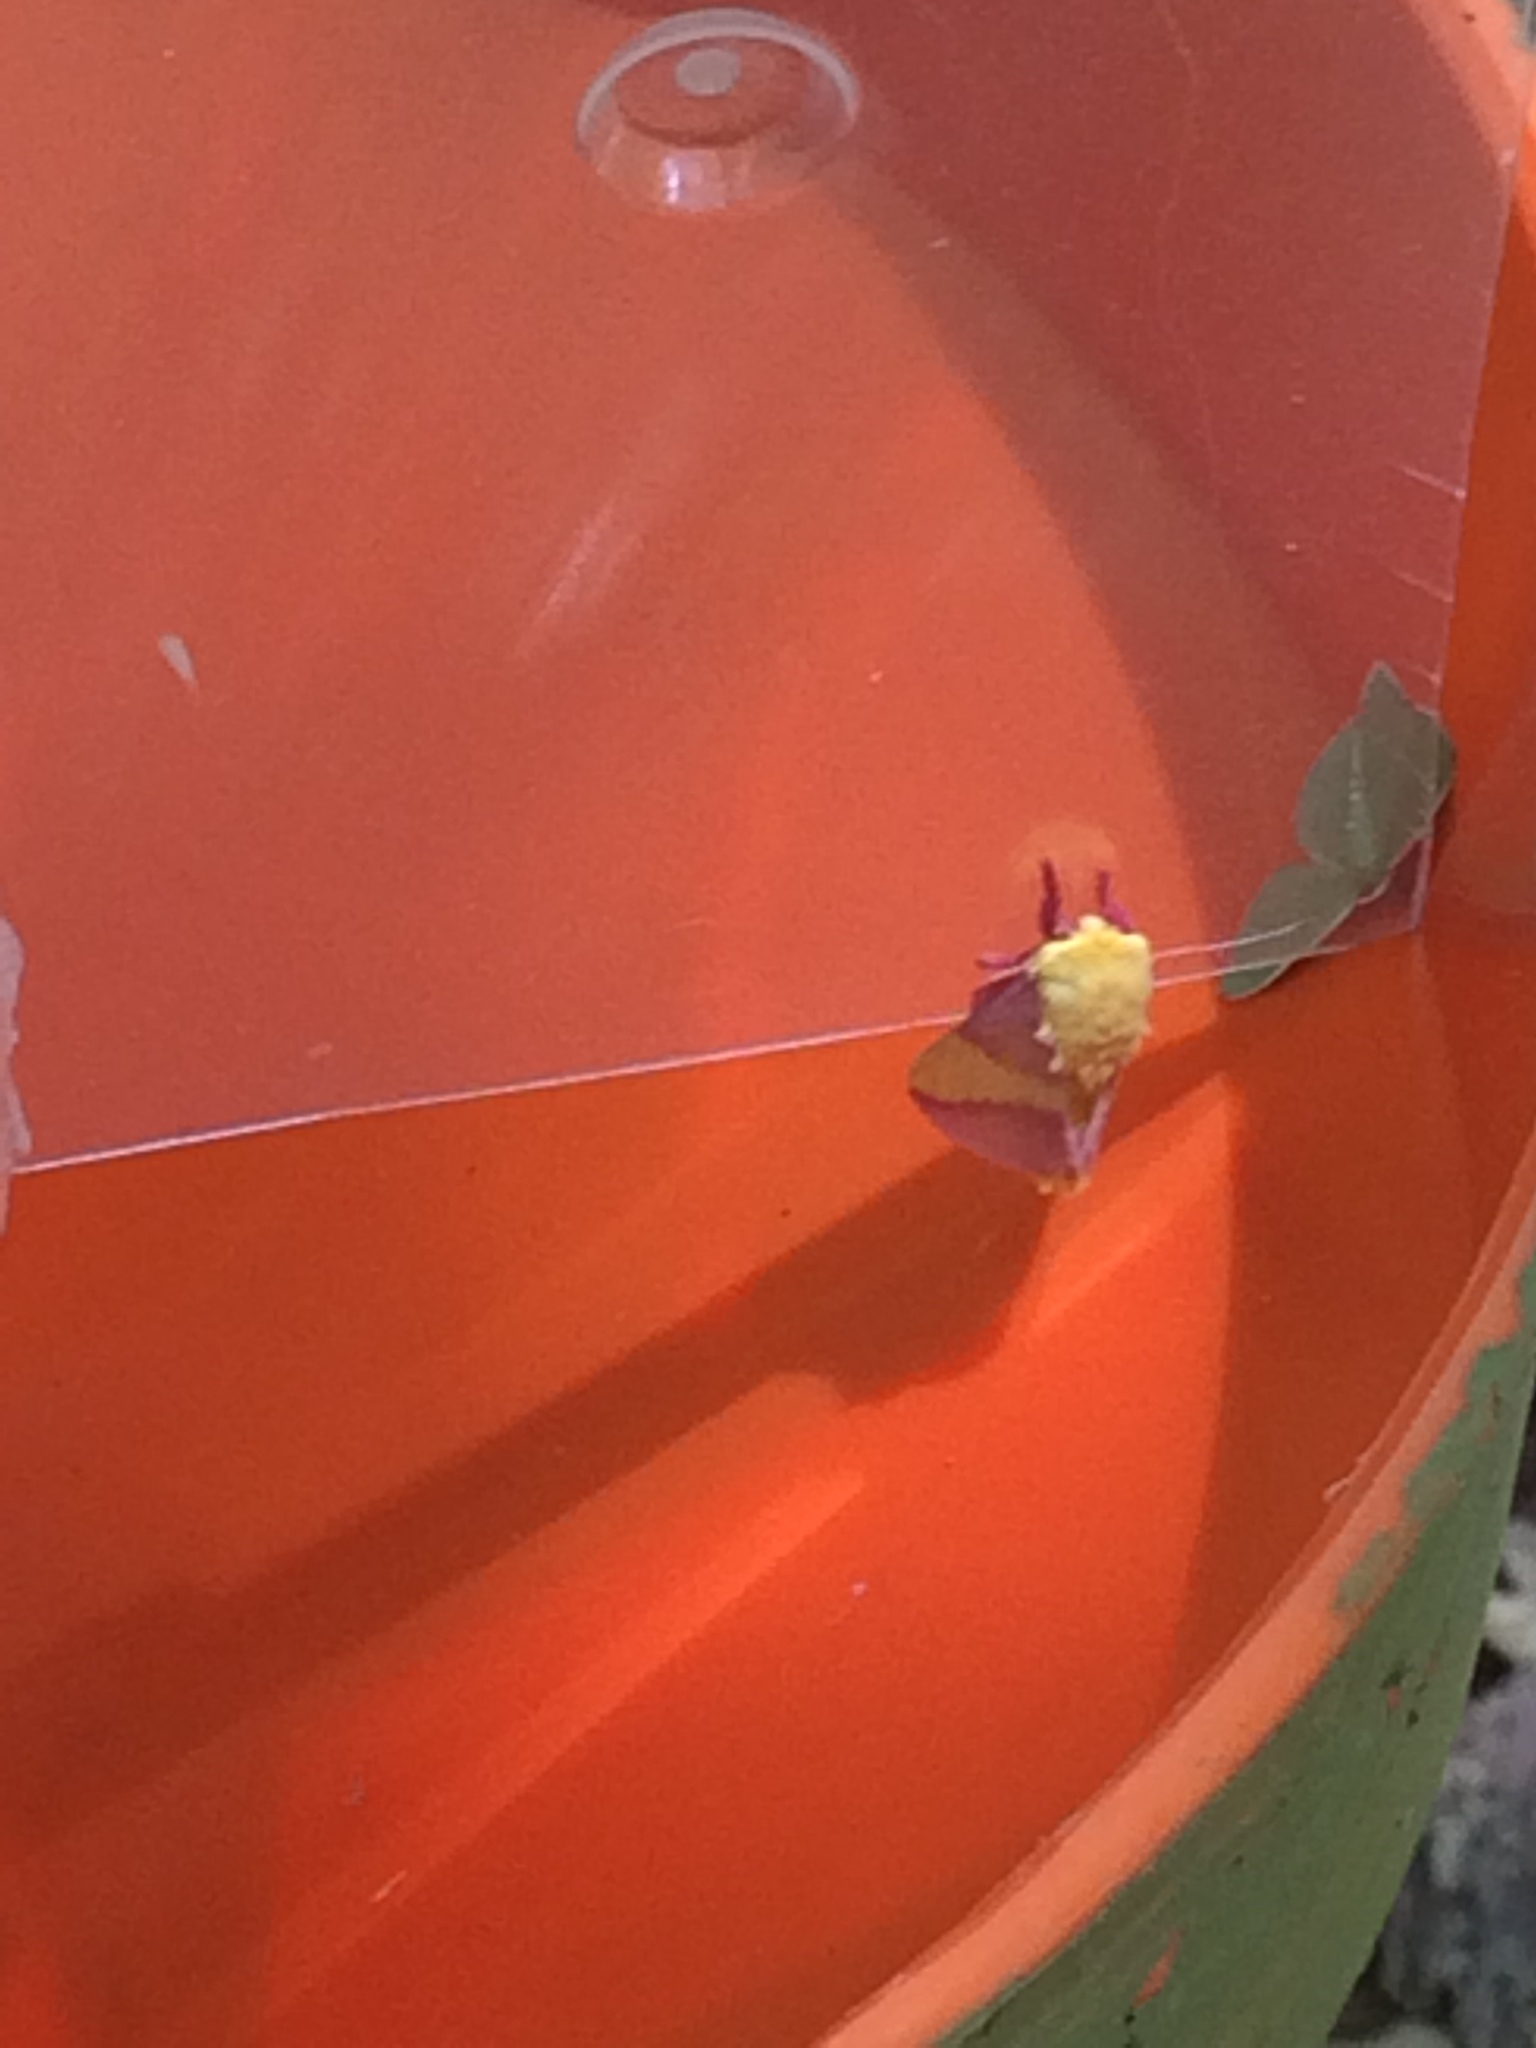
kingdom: Animalia
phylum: Arthropoda
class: Insecta
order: Lepidoptera
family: Saturniidae
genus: Dryocampa
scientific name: Dryocampa rubicunda
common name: Rosy maple moth
